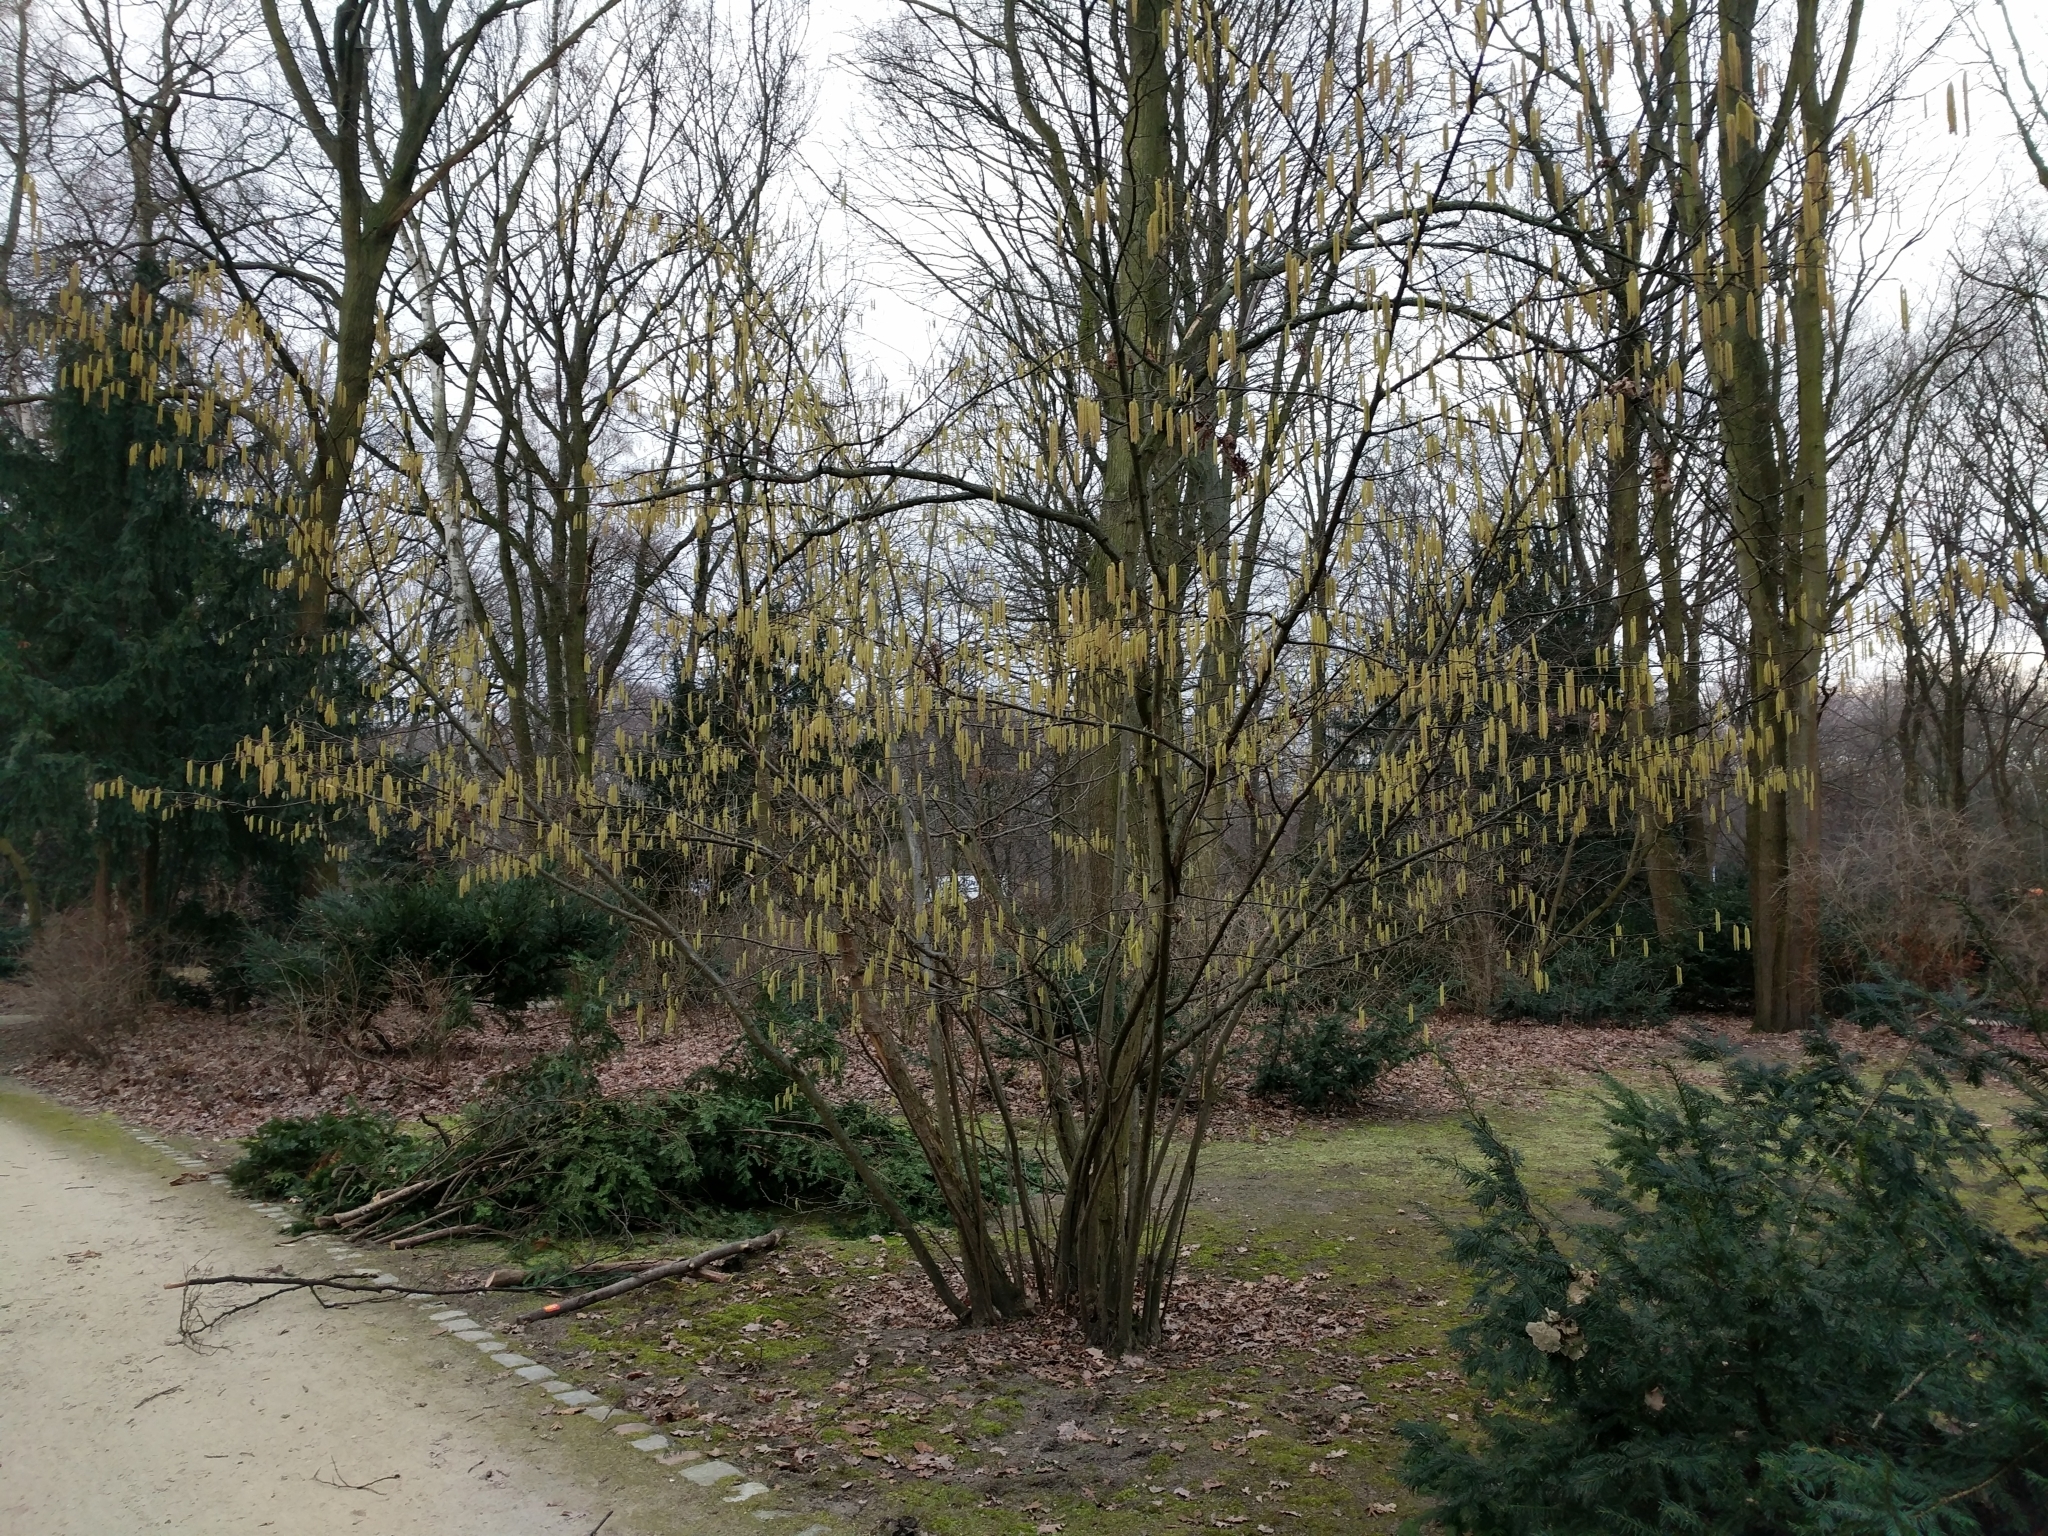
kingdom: Plantae
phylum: Tracheophyta
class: Magnoliopsida
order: Fagales
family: Betulaceae
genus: Corylus
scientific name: Corylus avellana
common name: European hazel
